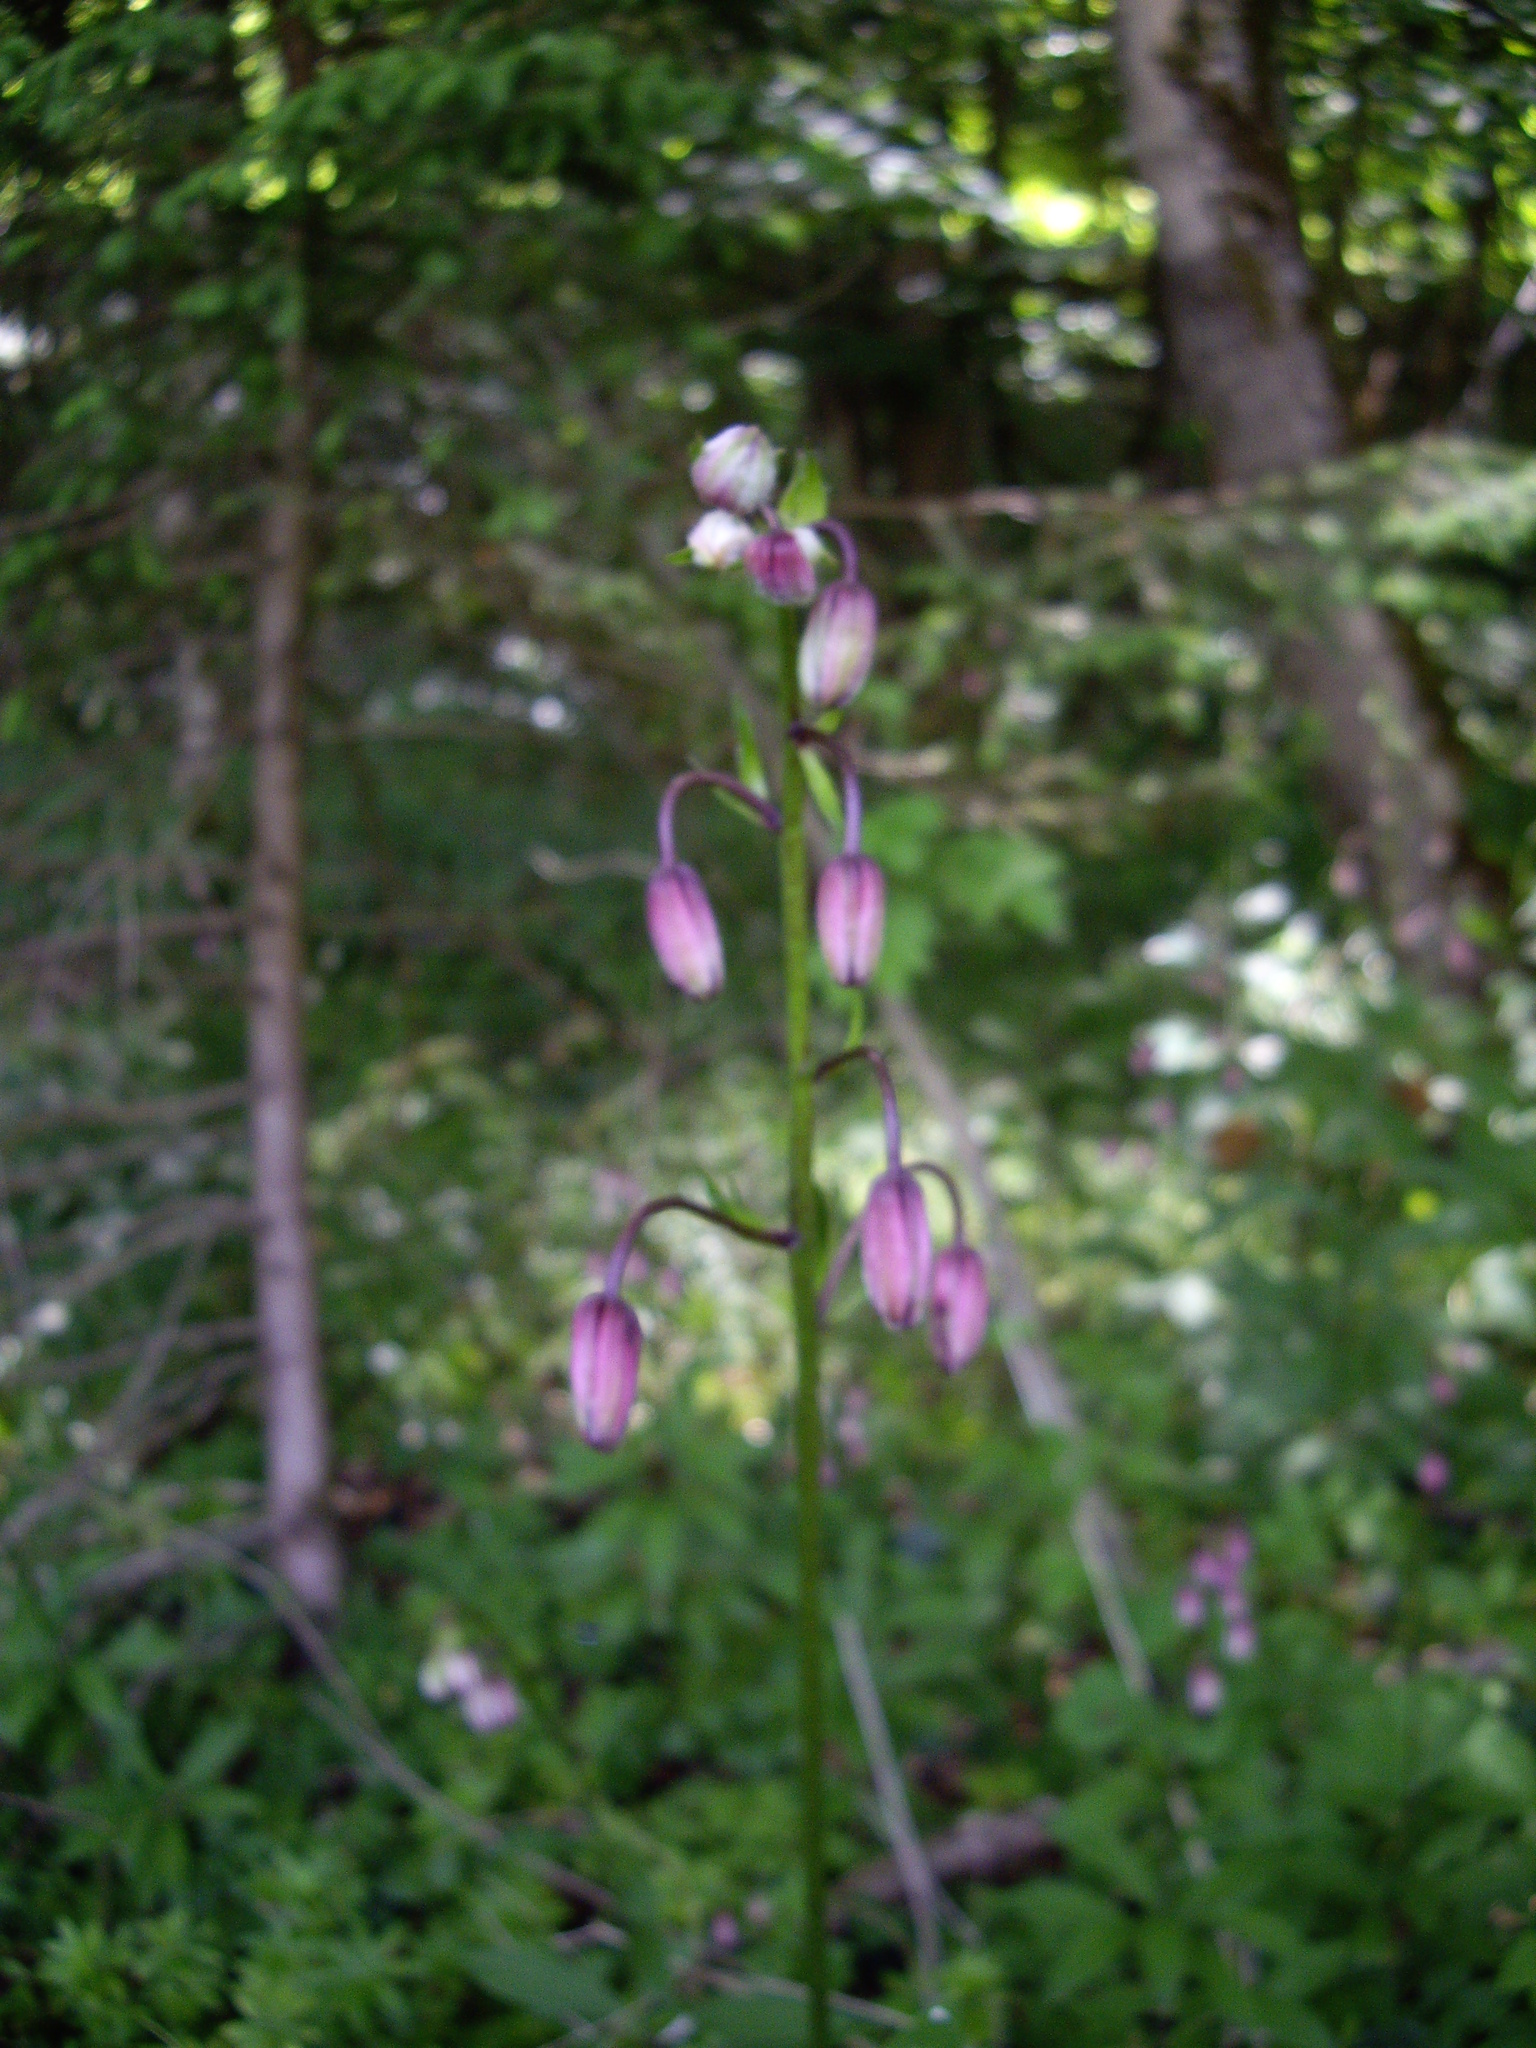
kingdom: Plantae
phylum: Tracheophyta
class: Liliopsida
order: Liliales
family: Liliaceae
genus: Lilium
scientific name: Lilium martagon
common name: Martagon lily
